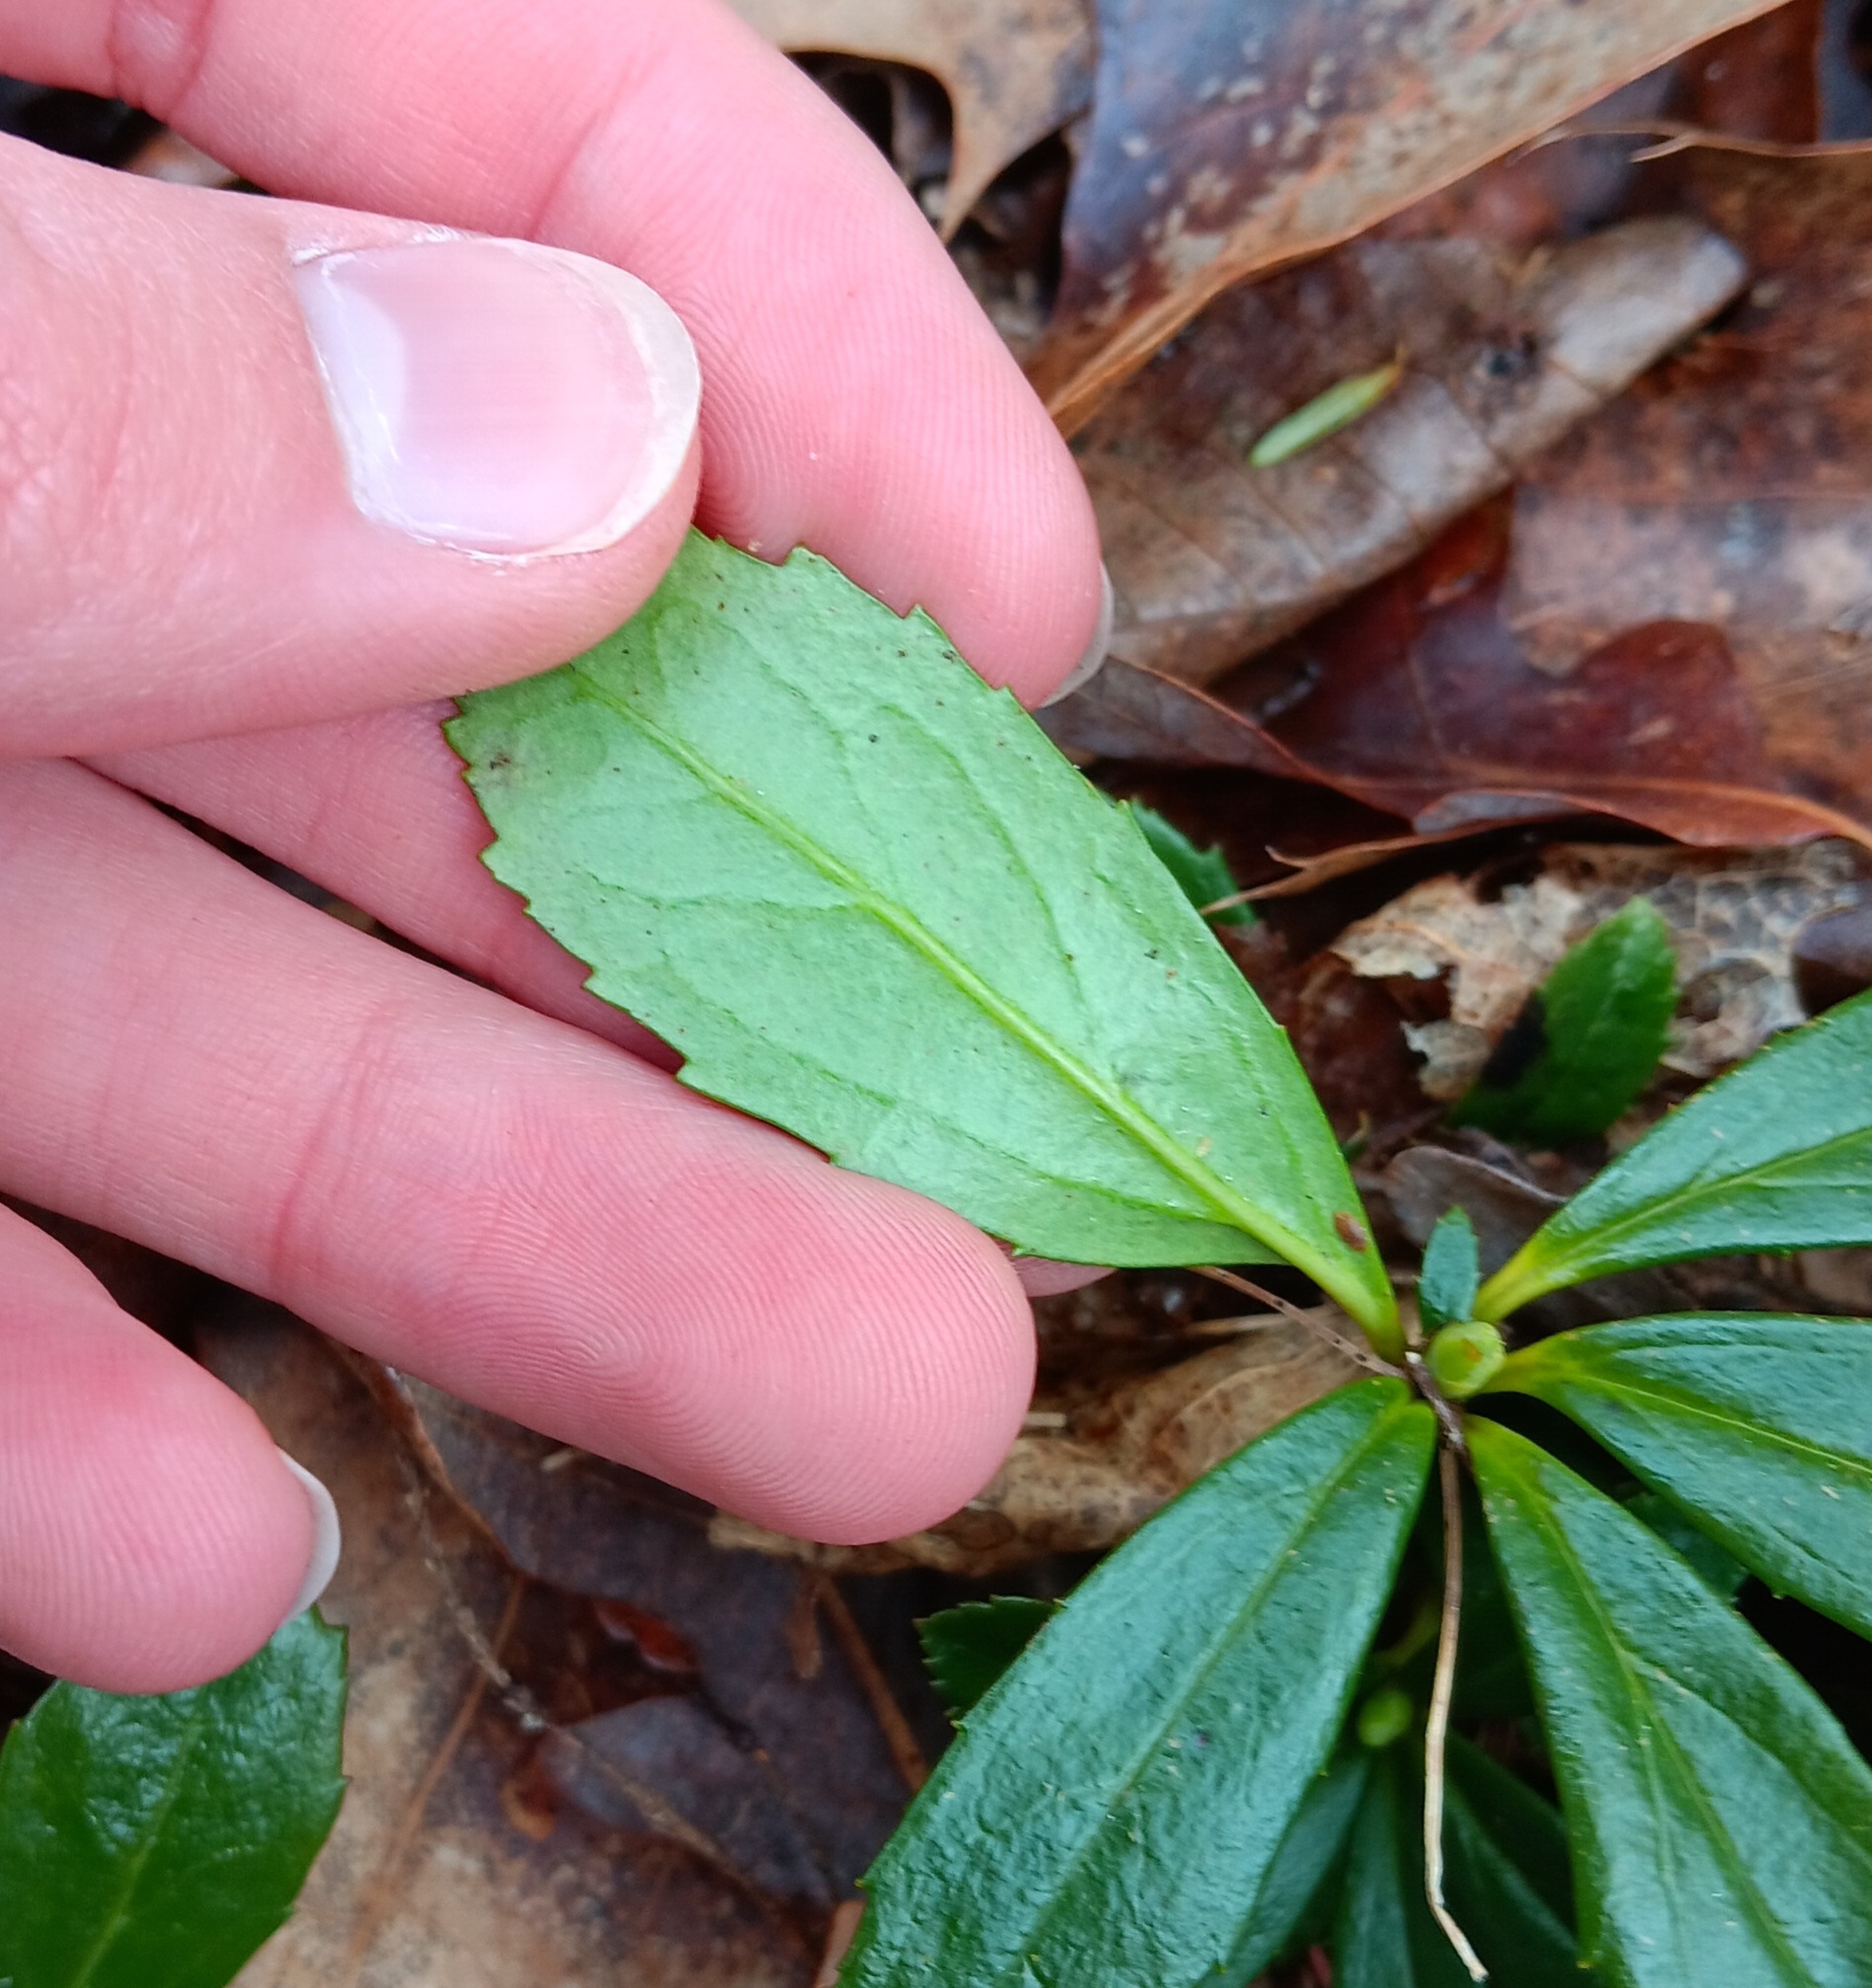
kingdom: Plantae
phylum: Tracheophyta
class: Magnoliopsida
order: Ericales
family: Ericaceae
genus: Chimaphila
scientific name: Chimaphila umbellata
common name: Pipsissewa
